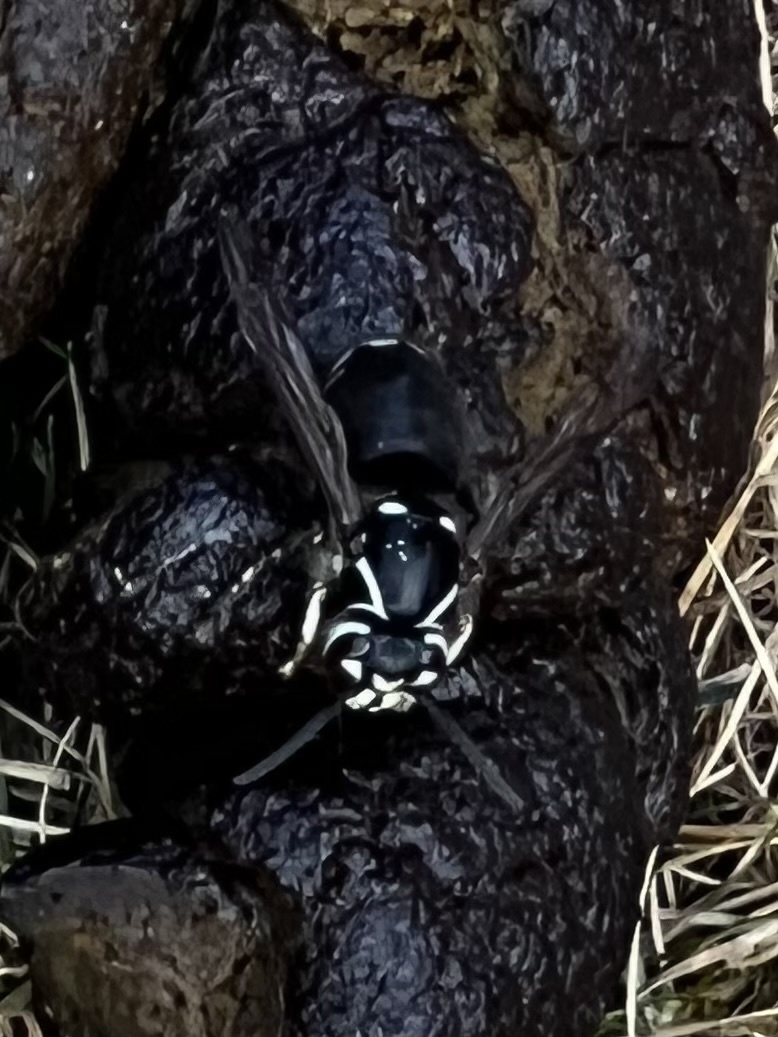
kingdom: Animalia
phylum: Arthropoda
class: Insecta
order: Hymenoptera
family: Vespidae
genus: Dolichovespula
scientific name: Dolichovespula maculata
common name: Bald-faced hornet
